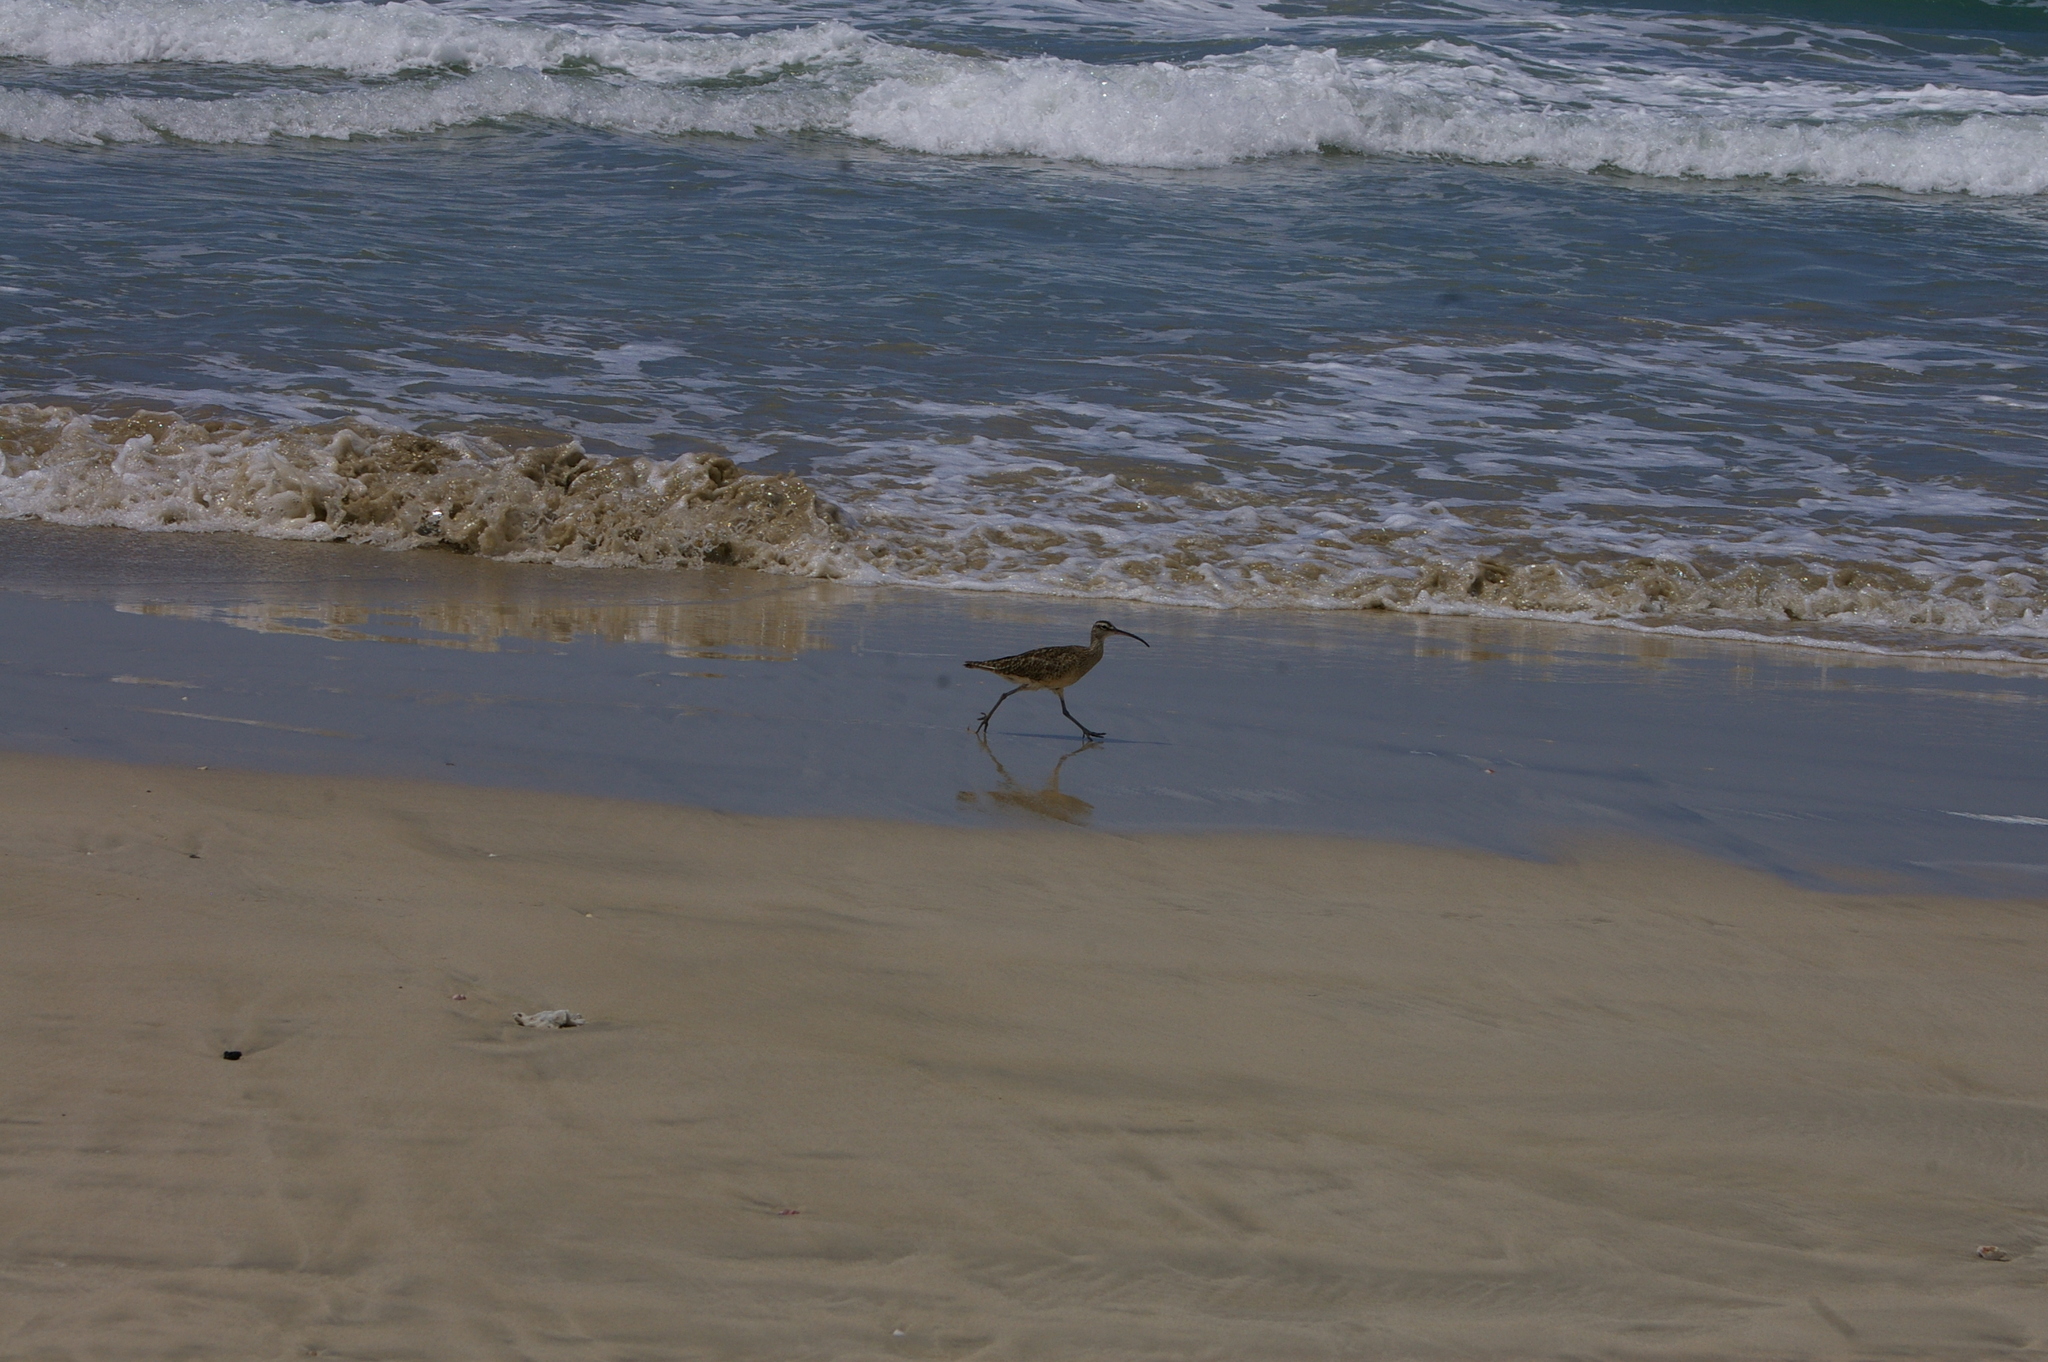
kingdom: Animalia
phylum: Chordata
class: Aves
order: Charadriiformes
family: Scolopacidae
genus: Numenius
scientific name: Numenius phaeopus
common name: Whimbrel
